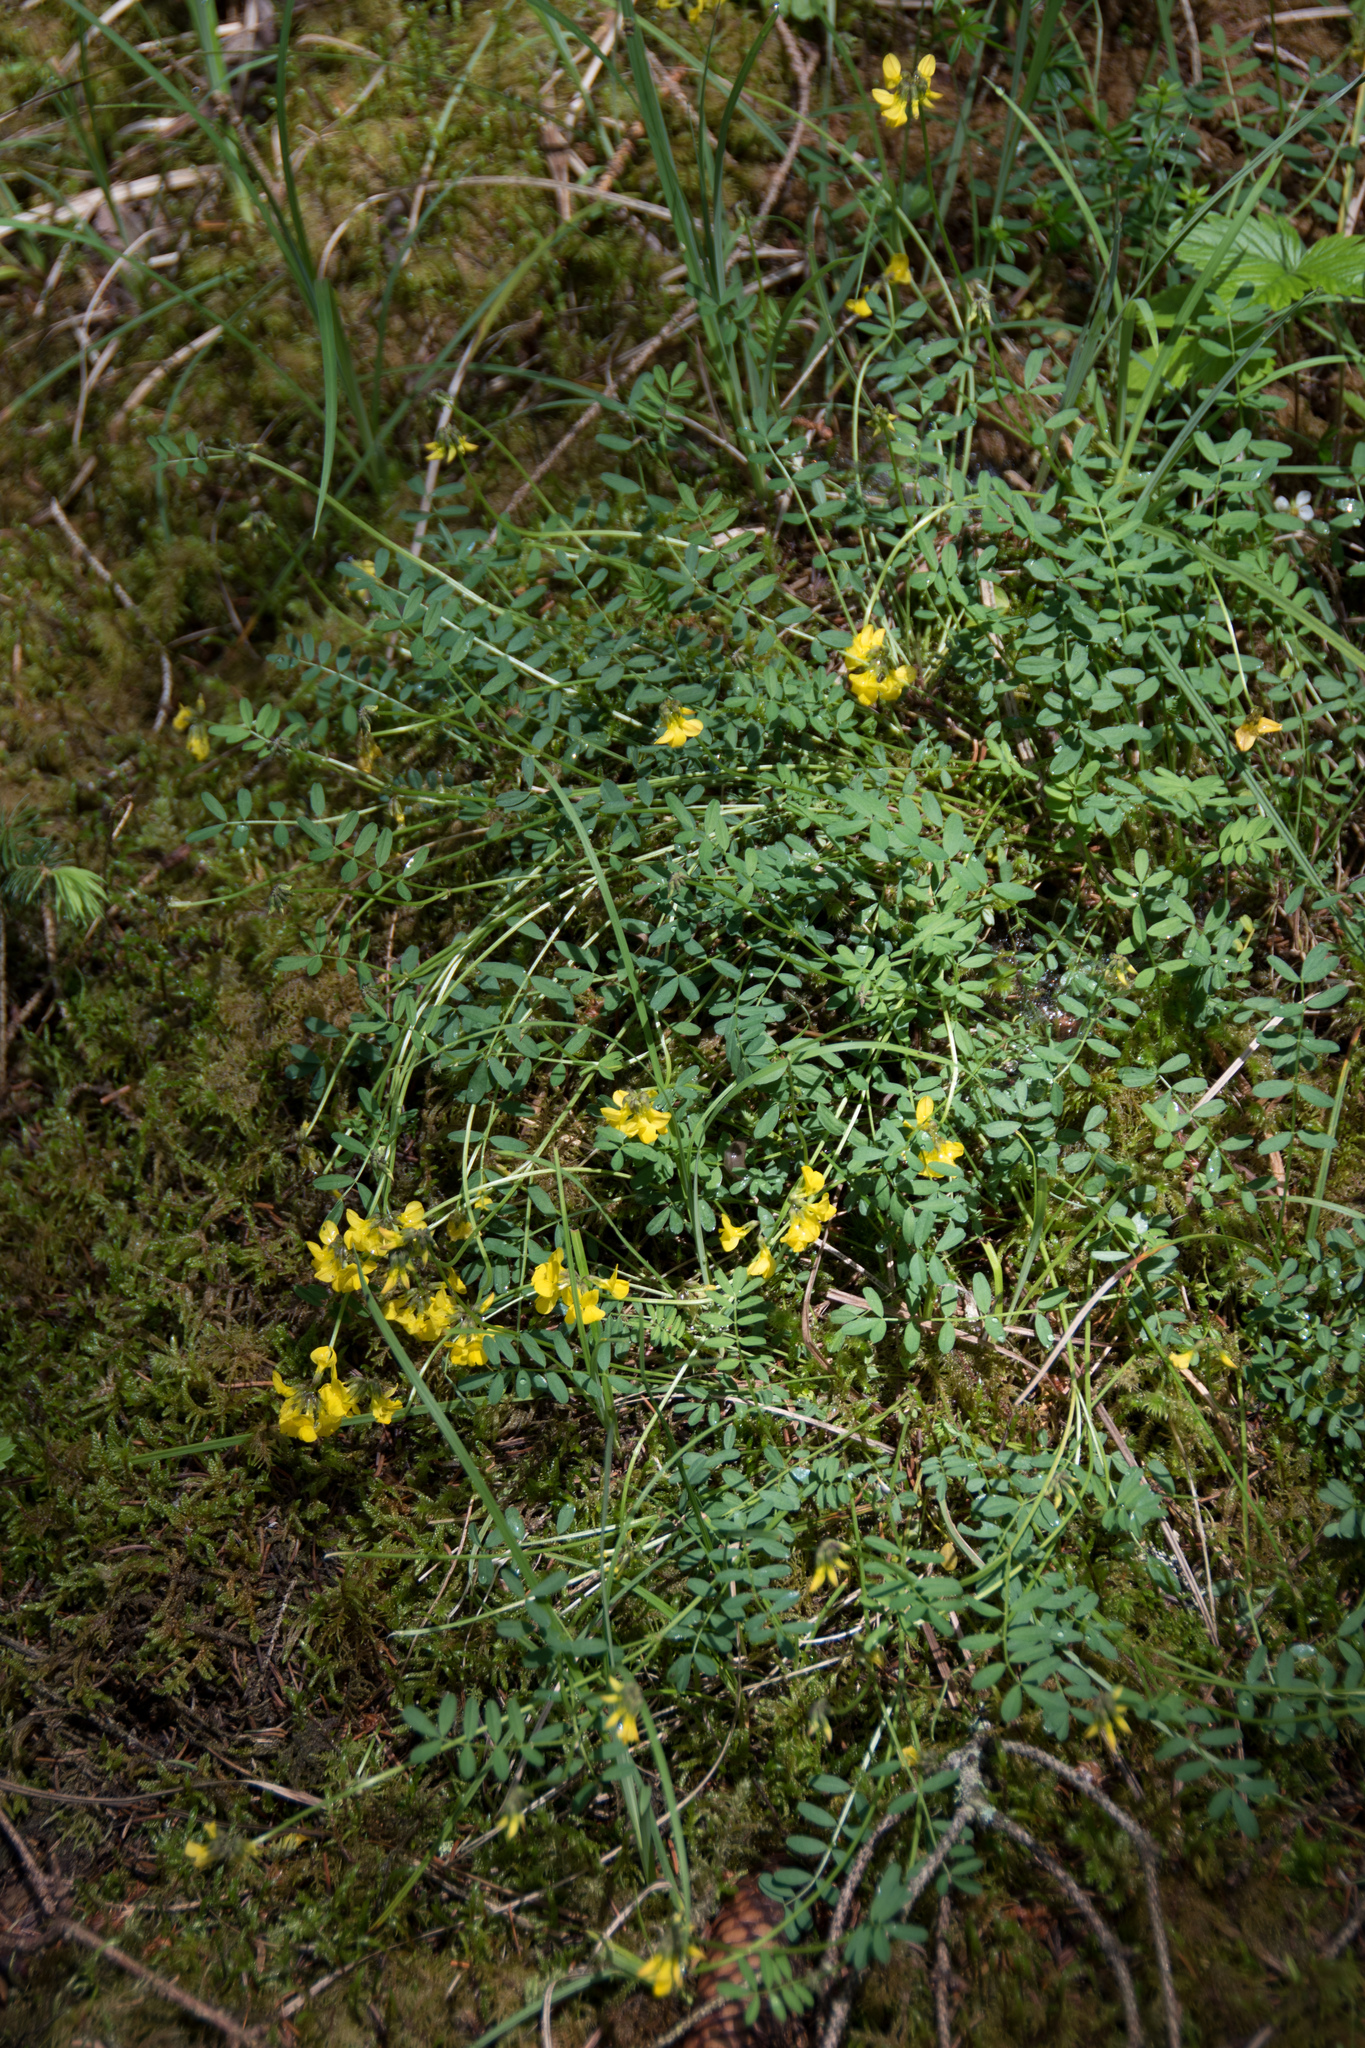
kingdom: Plantae
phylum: Tracheophyta
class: Magnoliopsida
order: Fabales
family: Fabaceae
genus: Hippocrepis
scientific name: Hippocrepis comosa
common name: Horseshoe vetch
